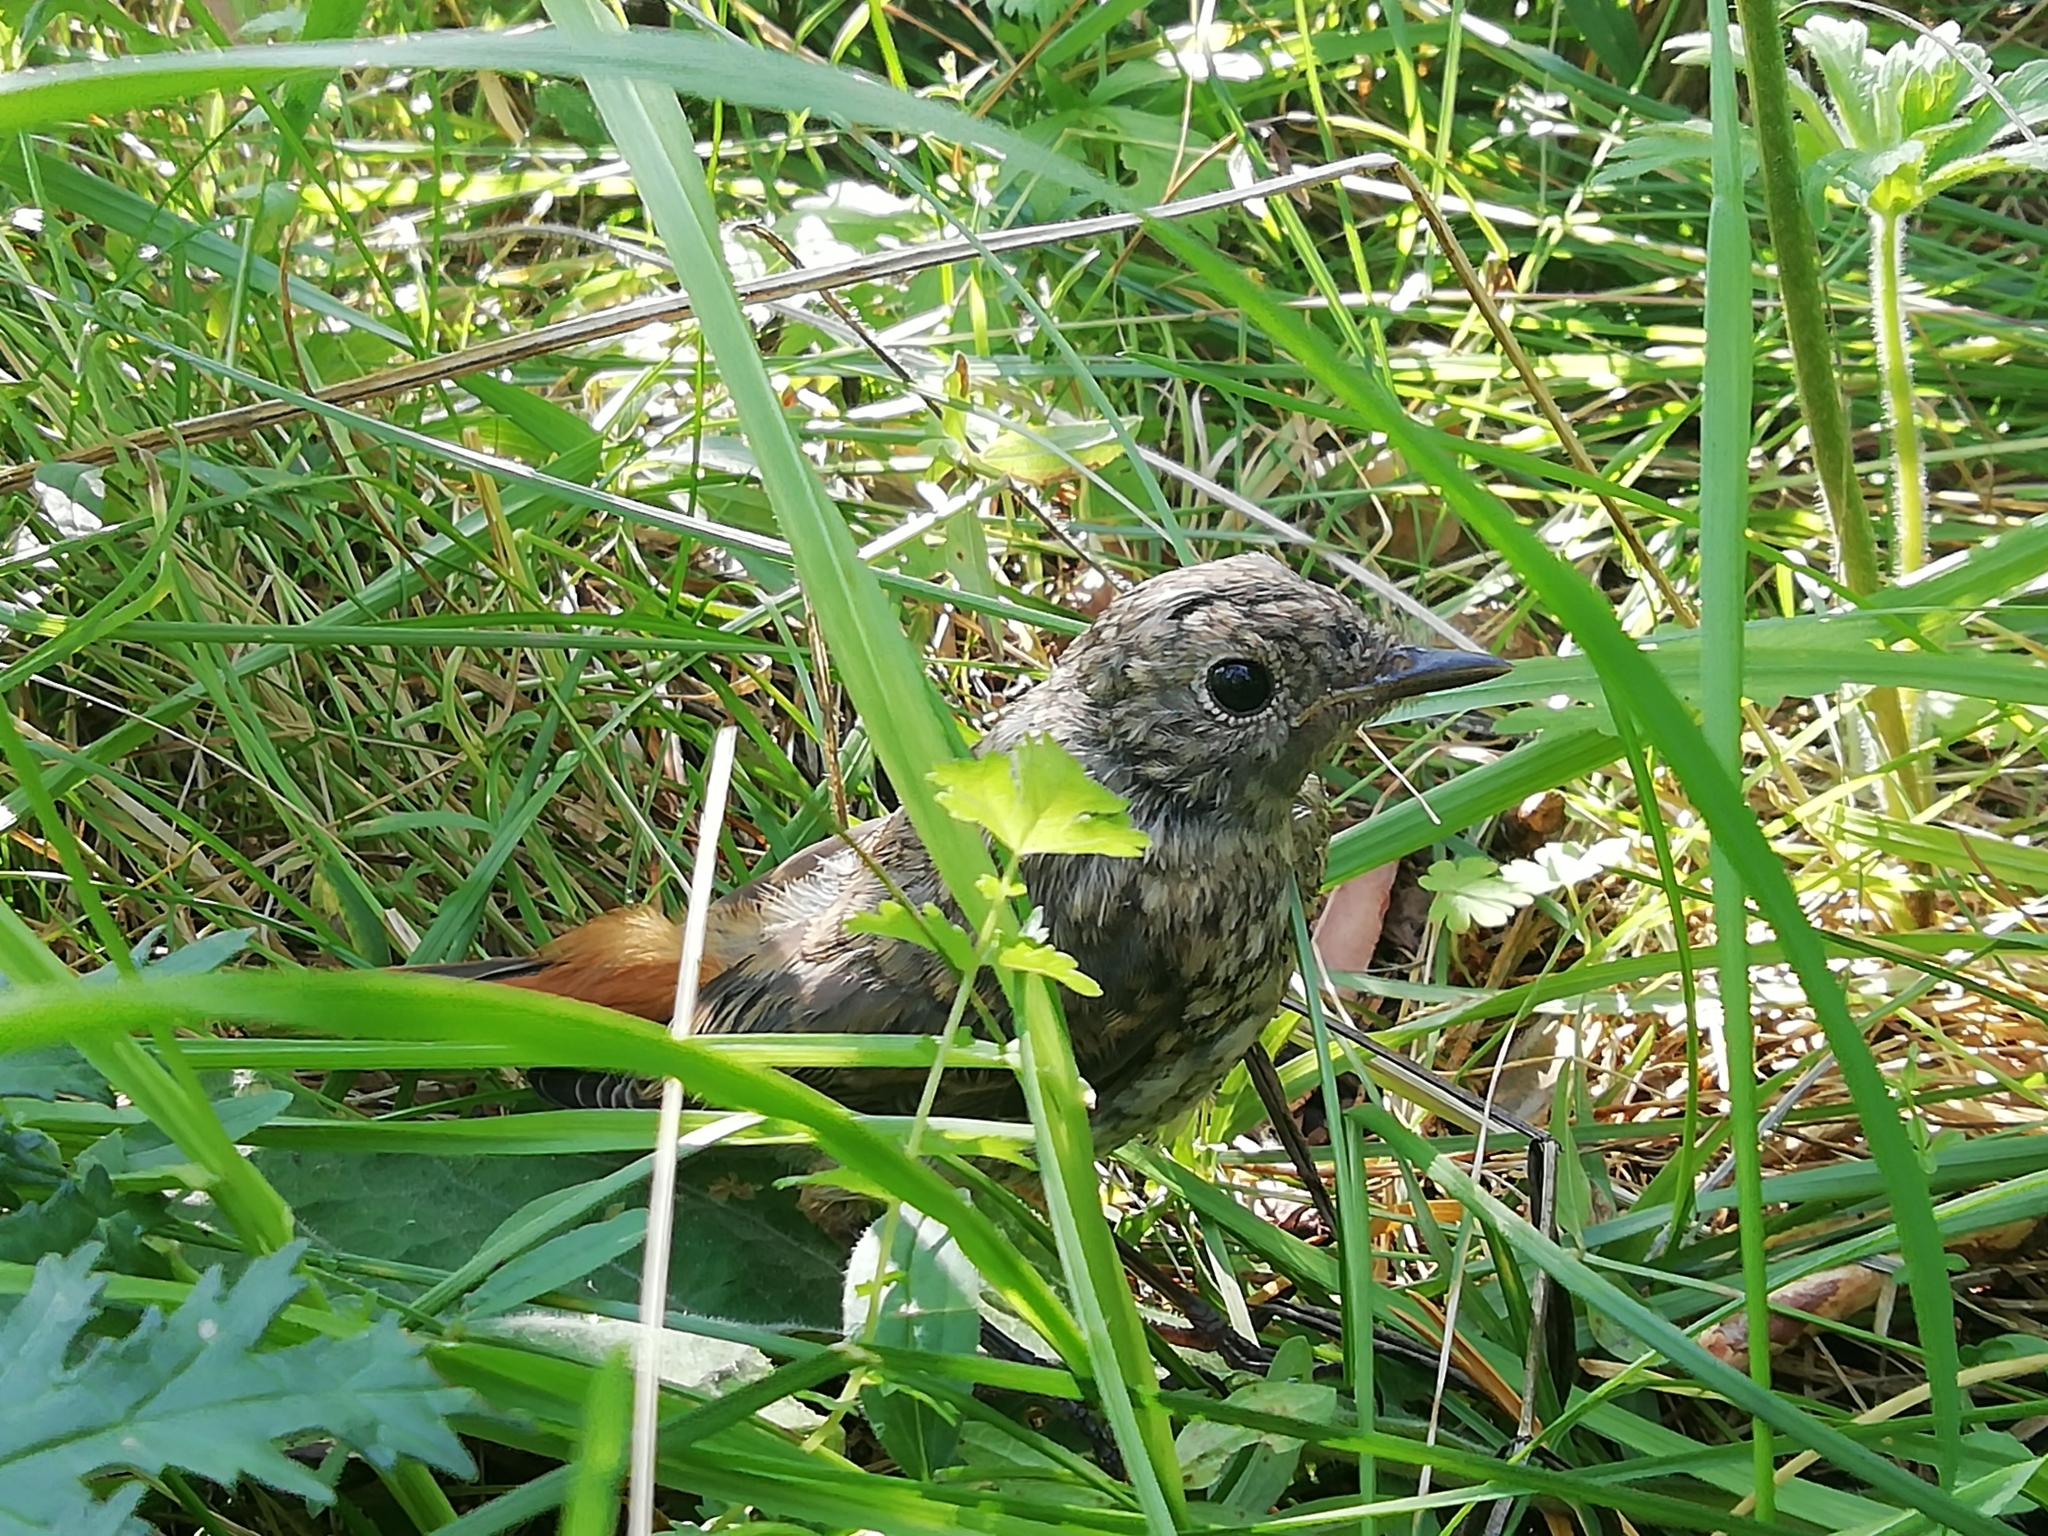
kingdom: Animalia
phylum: Chordata
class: Aves
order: Passeriformes
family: Muscicapidae
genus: Monticola
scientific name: Monticola saxatilis
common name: Rufous-tailed rock thrush
